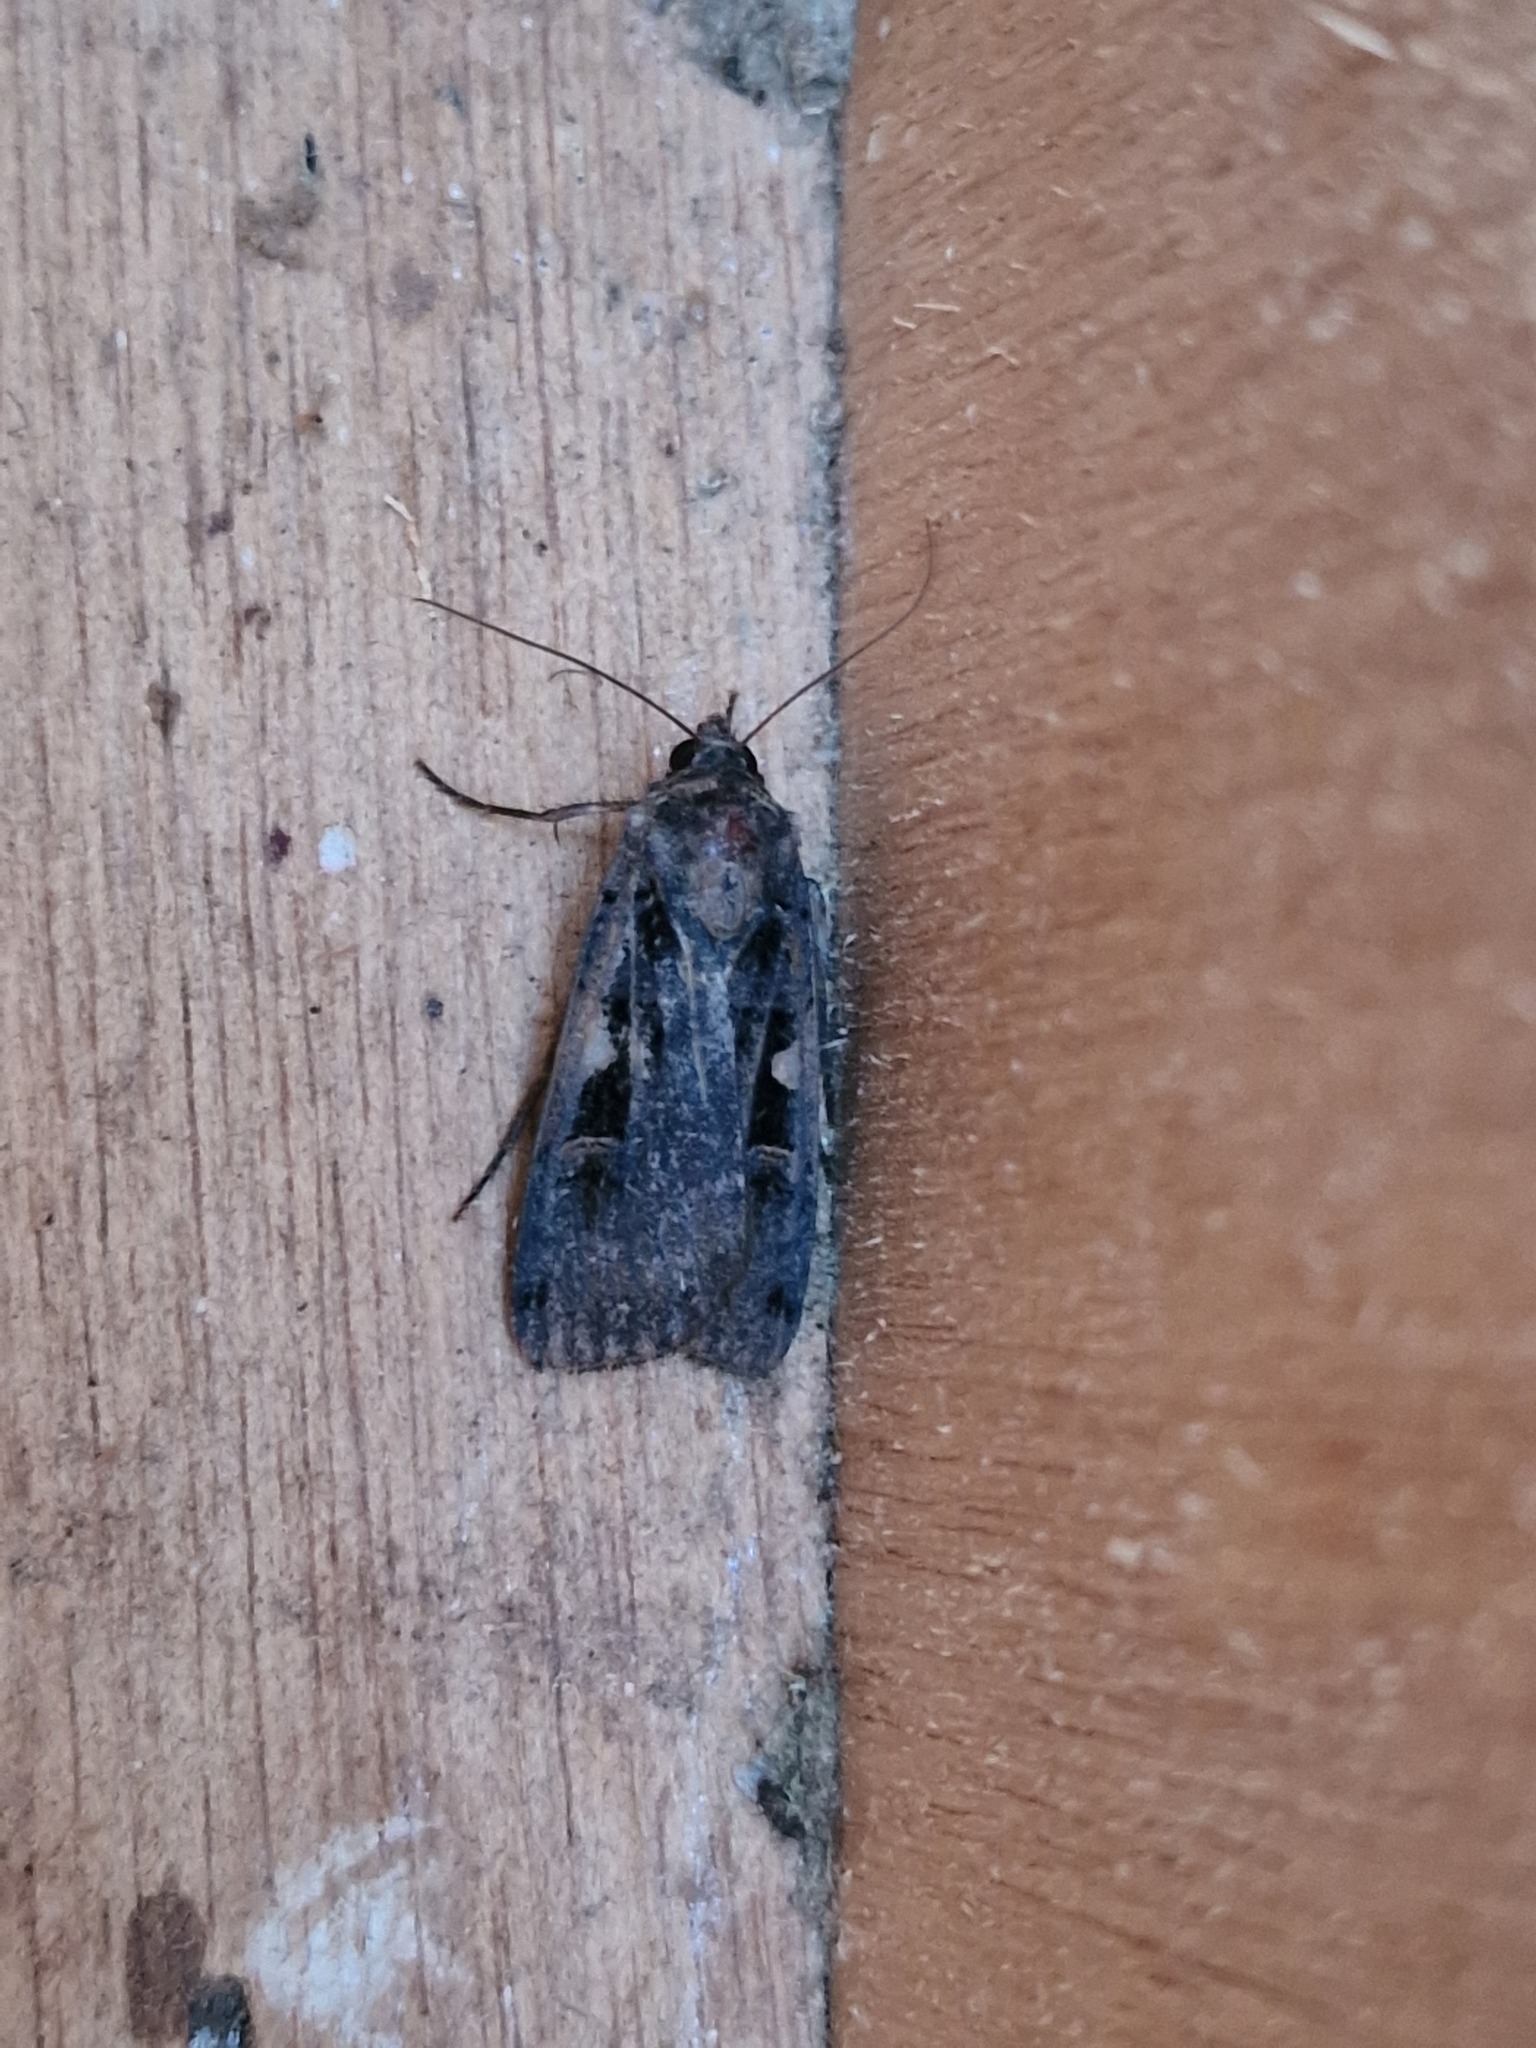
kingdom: Animalia
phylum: Arthropoda
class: Insecta
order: Lepidoptera
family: Noctuidae
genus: Xestia
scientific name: Xestia c-nigrum
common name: Setaceous hebrew character
